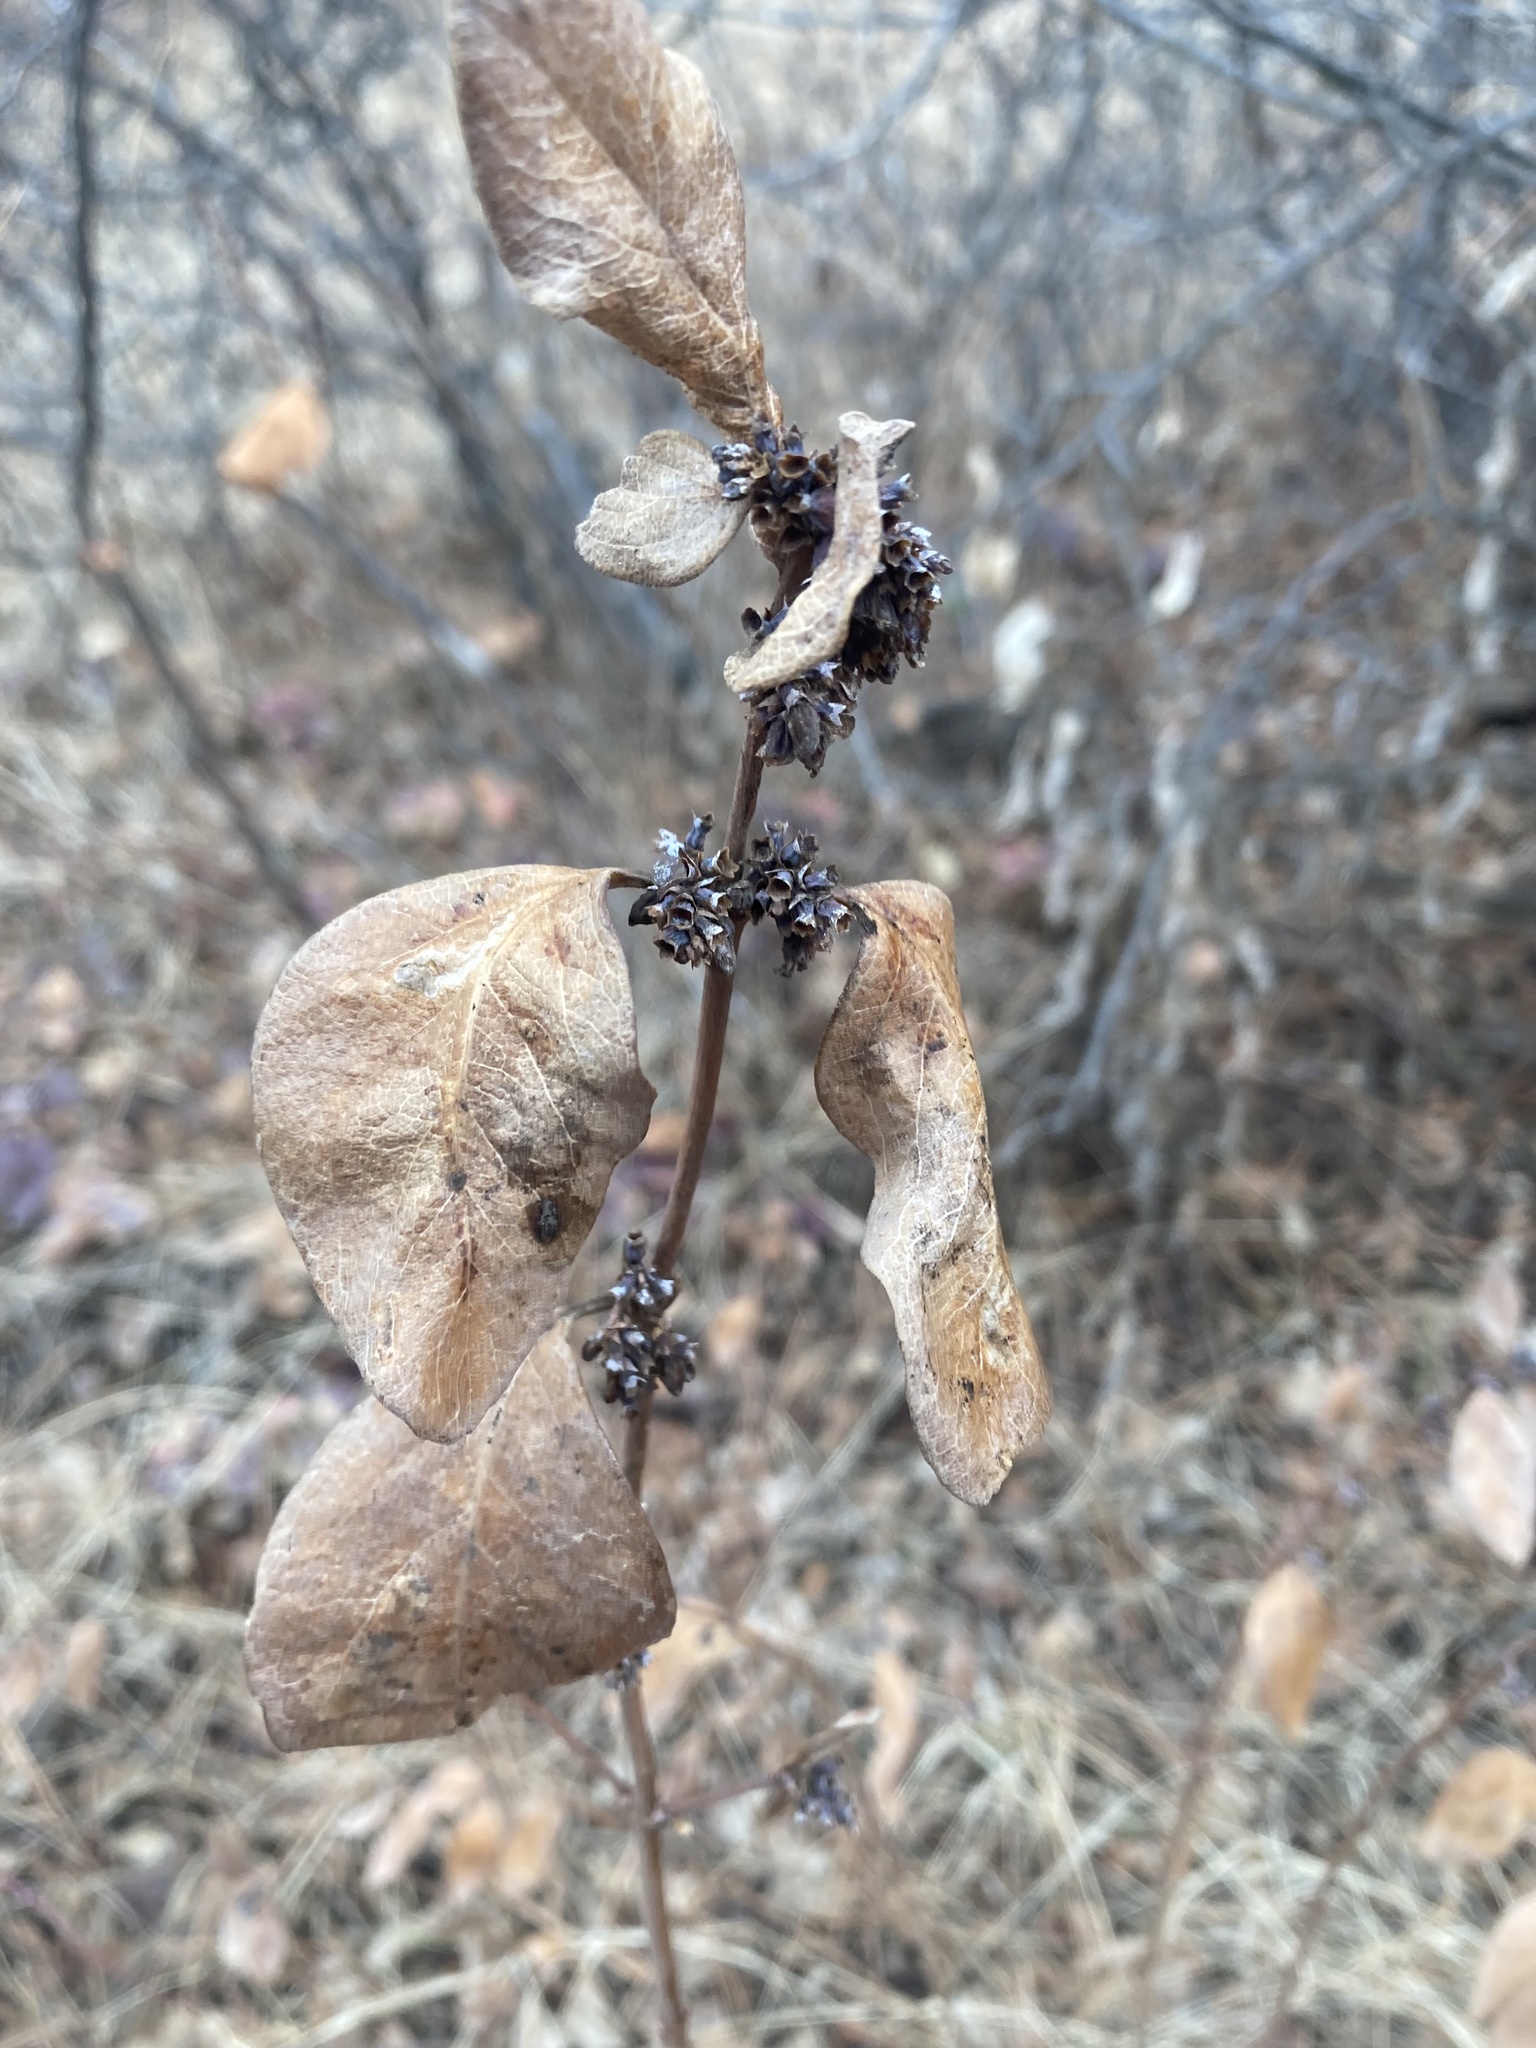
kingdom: Plantae
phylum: Tracheophyta
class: Magnoliopsida
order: Dipsacales
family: Caprifoliaceae
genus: Symphoricarpos
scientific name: Symphoricarpos occidentalis
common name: Wolfberry
